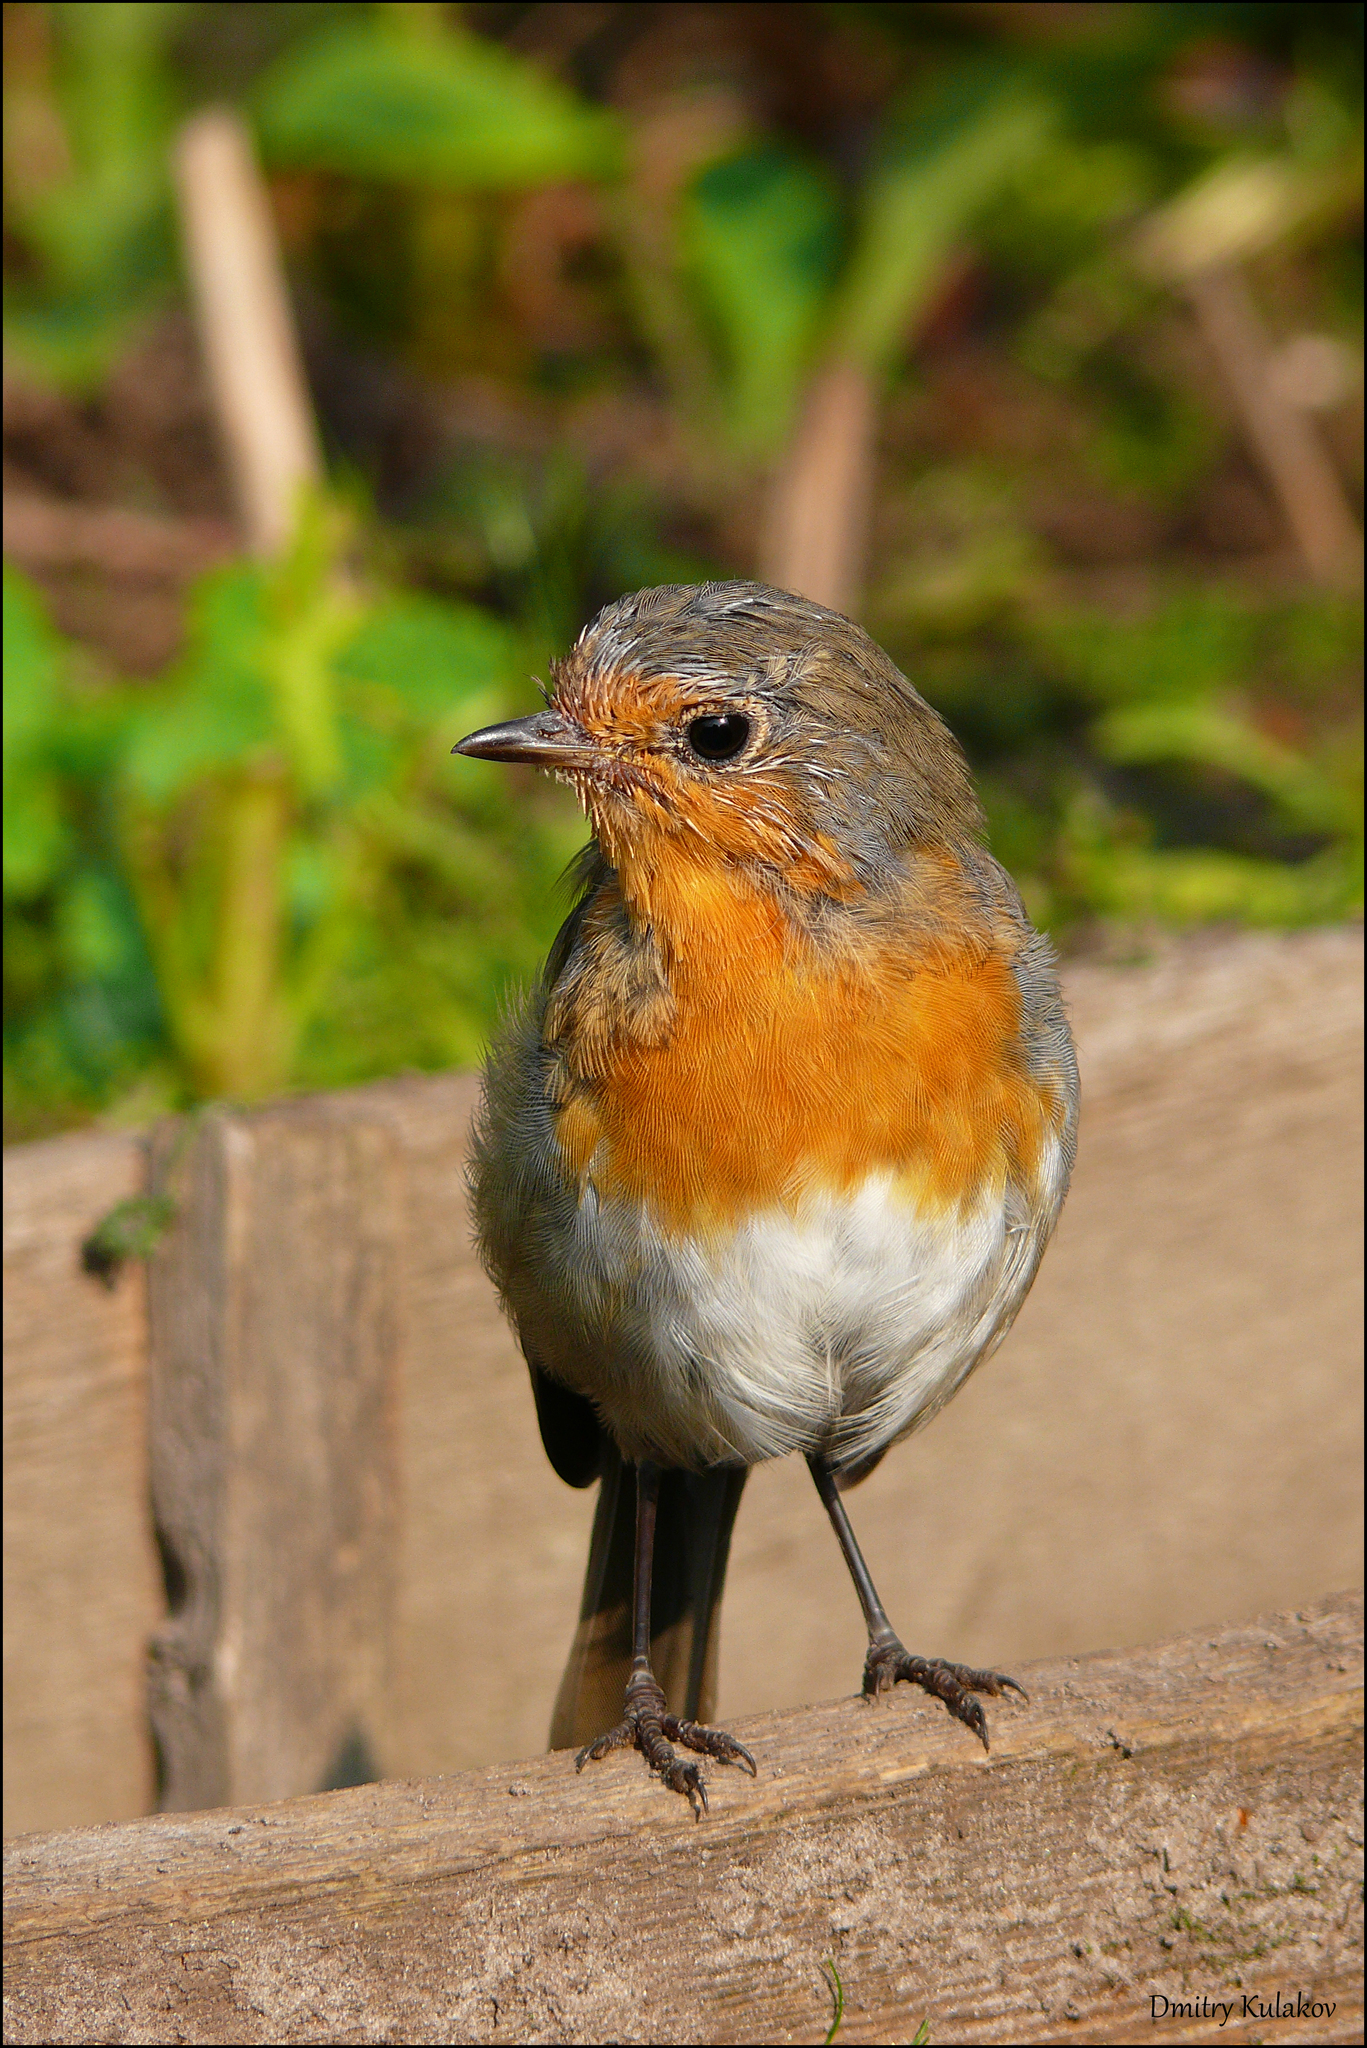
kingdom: Animalia
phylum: Chordata
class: Aves
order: Passeriformes
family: Muscicapidae
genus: Erithacus
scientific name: Erithacus rubecula
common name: European robin
